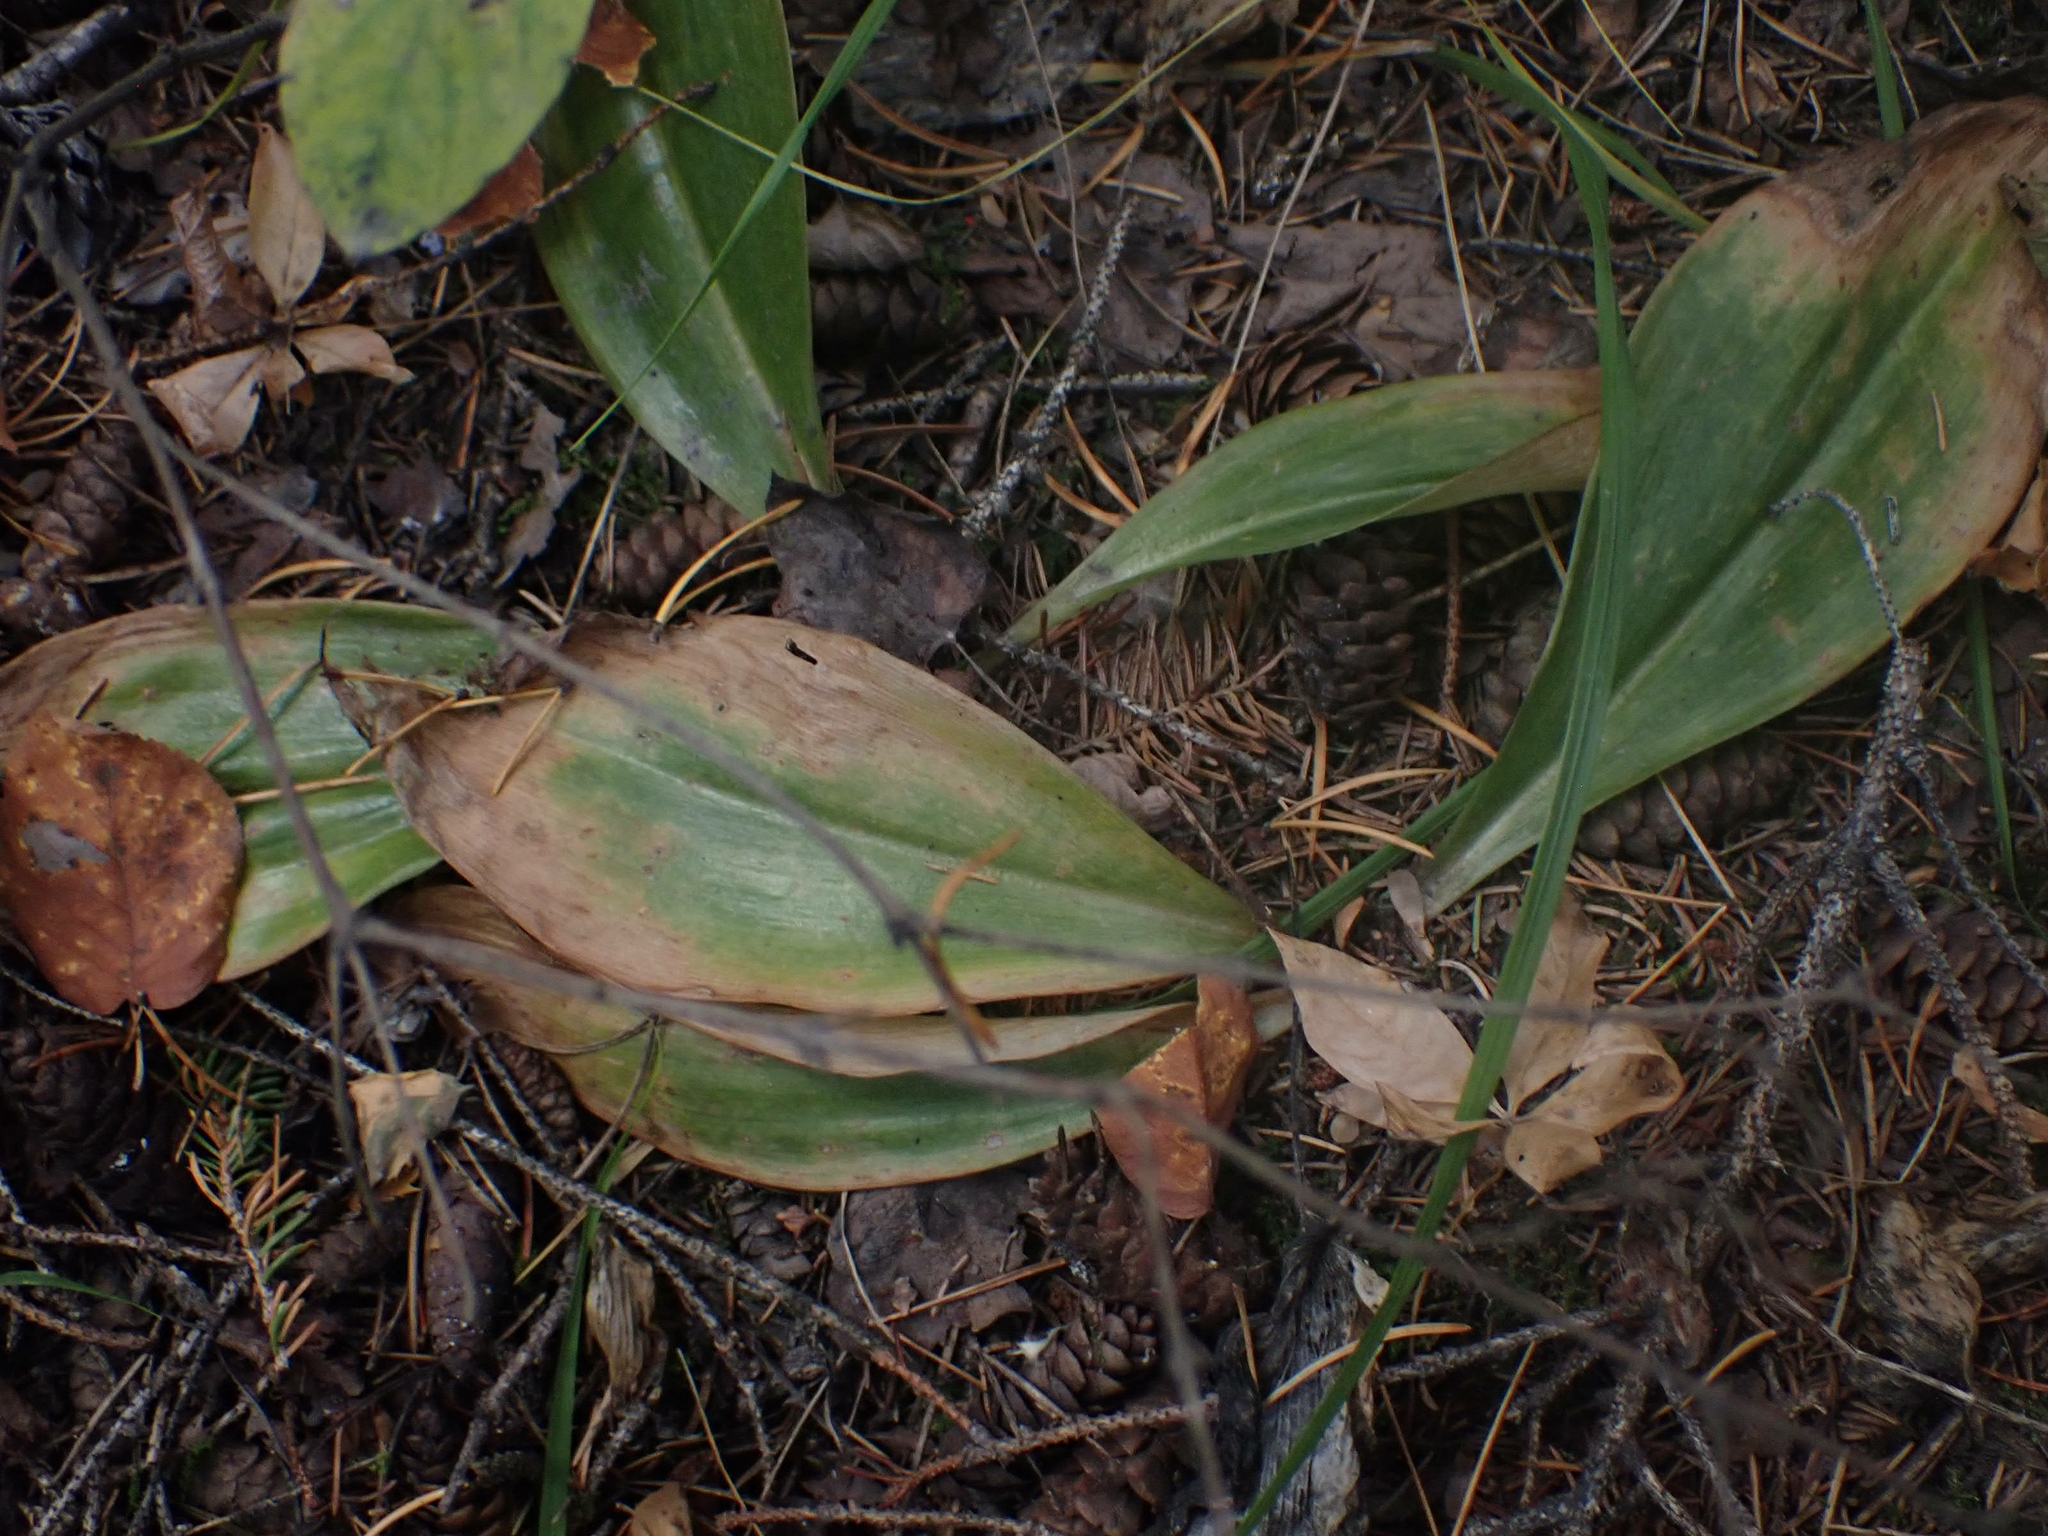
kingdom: Plantae
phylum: Tracheophyta
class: Liliopsida
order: Liliales
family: Liliaceae
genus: Clintonia
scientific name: Clintonia borealis
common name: Yellow clintonia
